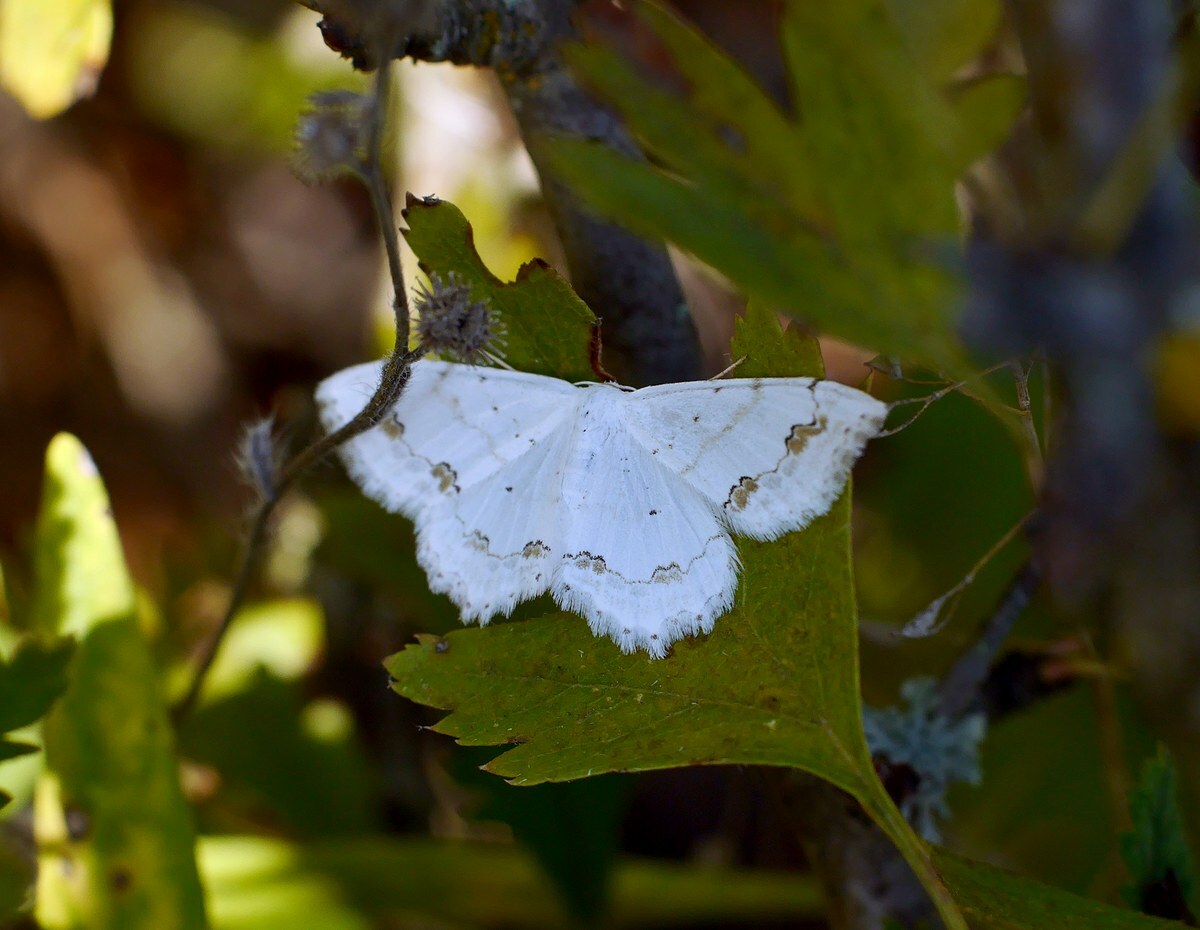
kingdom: Animalia
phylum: Arthropoda
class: Insecta
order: Lepidoptera
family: Geometridae
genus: Scopula
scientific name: Scopula ornata
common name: Lace border
